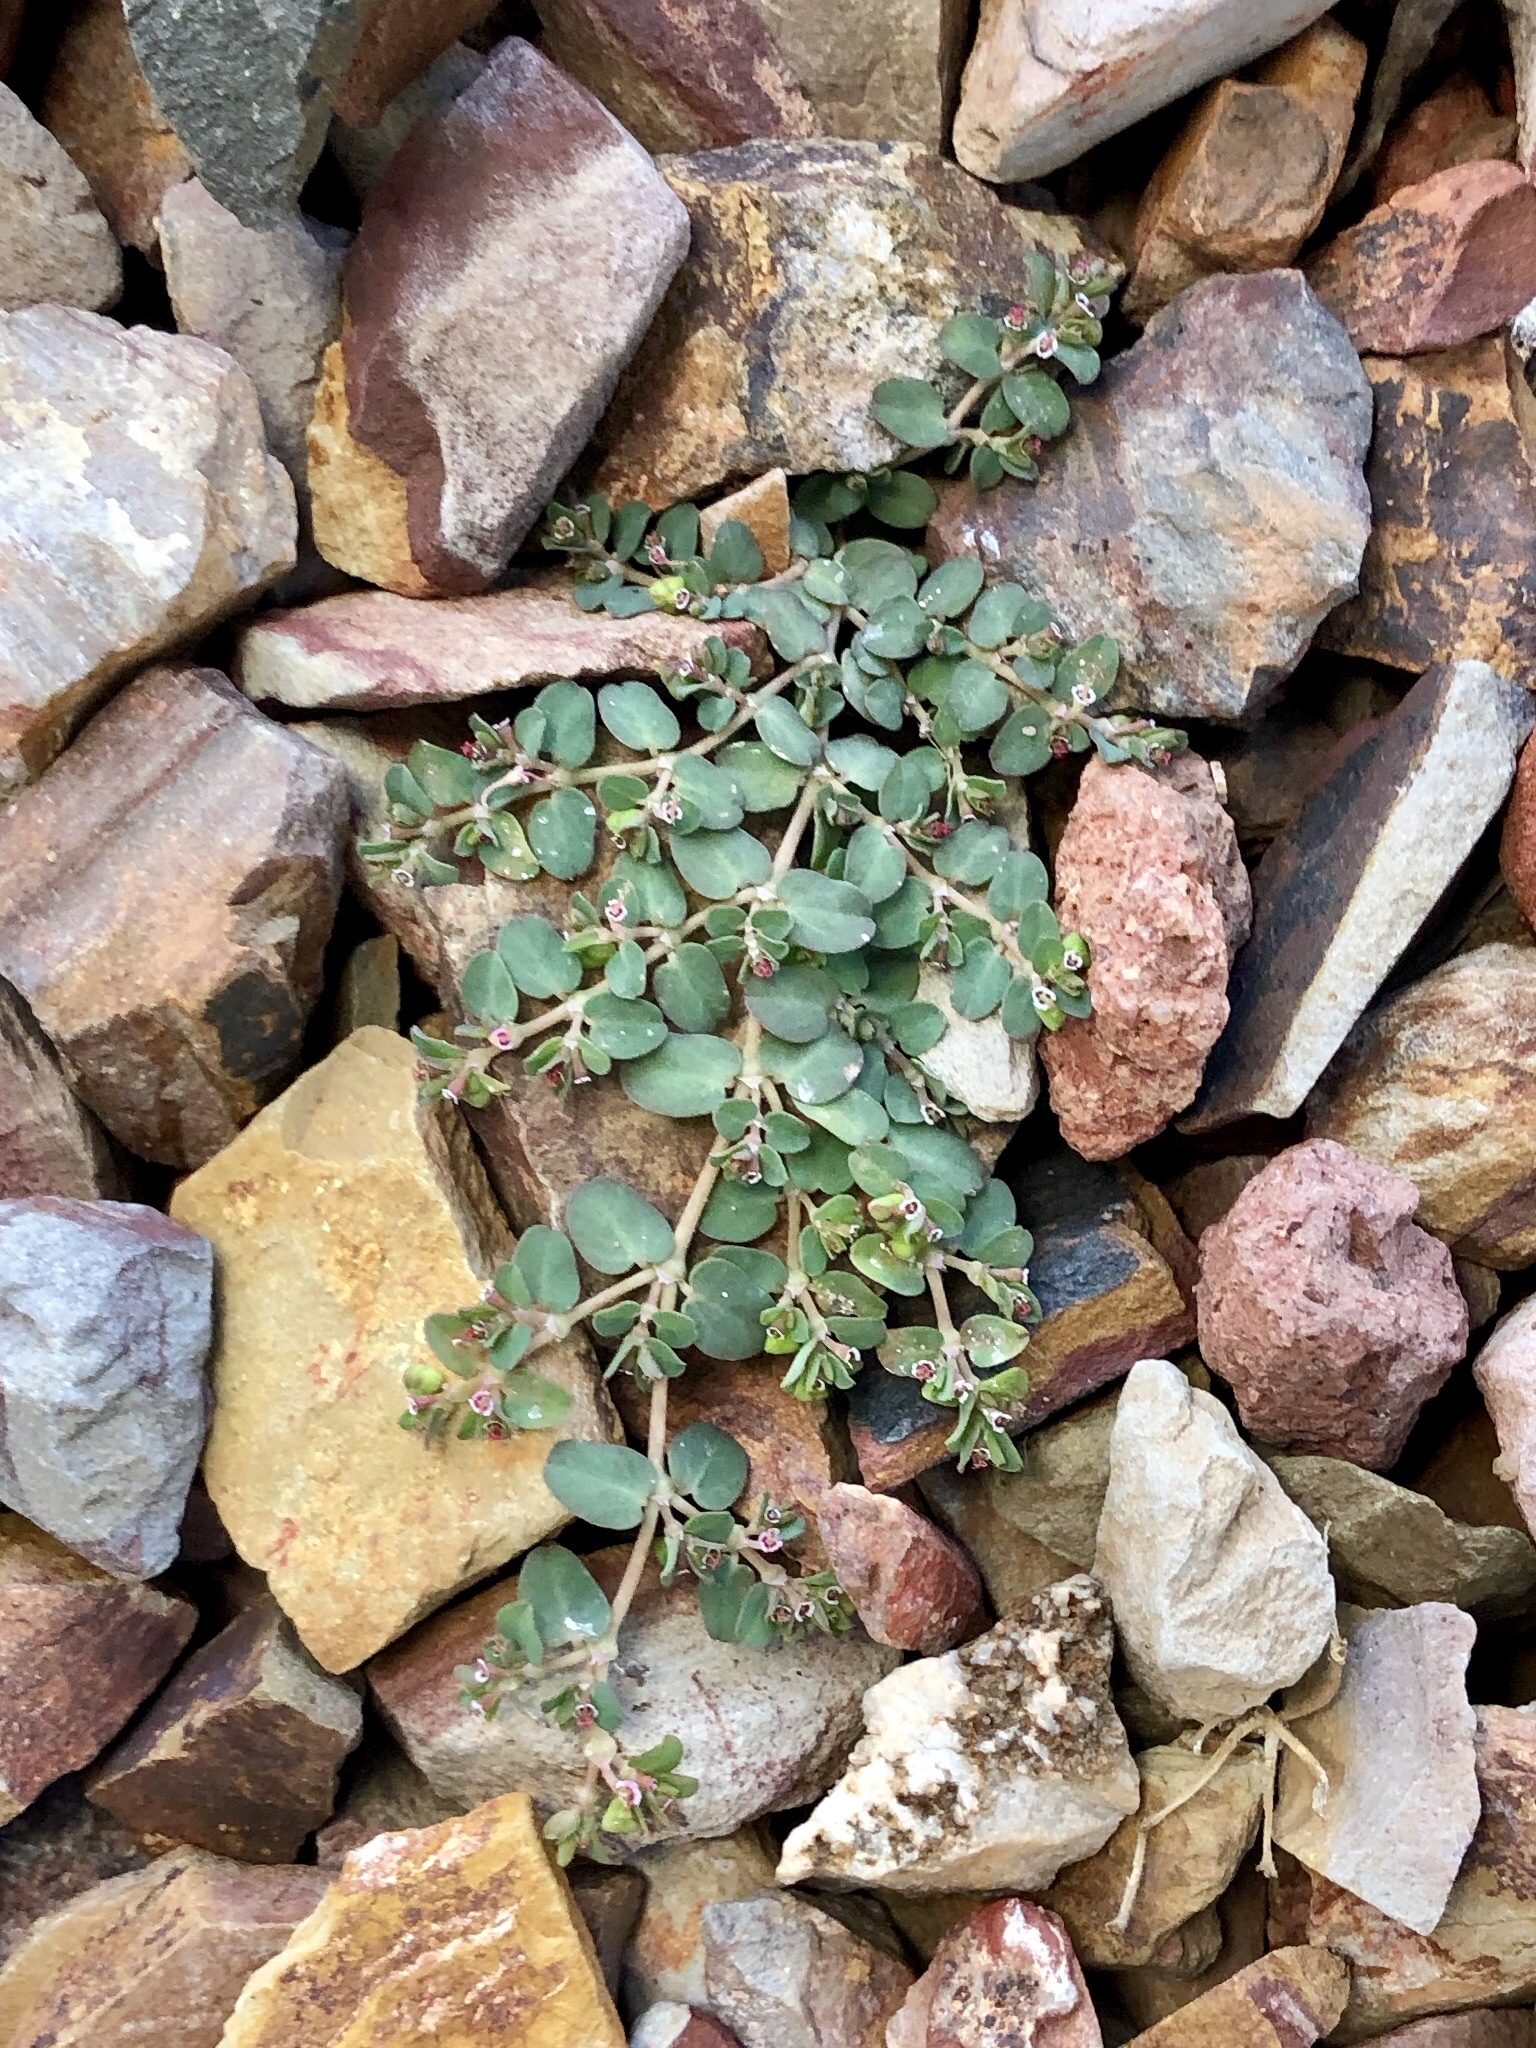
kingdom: Plantae
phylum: Tracheophyta
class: Magnoliopsida
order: Malpighiales
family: Euphorbiaceae
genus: Euphorbia
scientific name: Euphorbia serpens
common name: Matted sandmat
